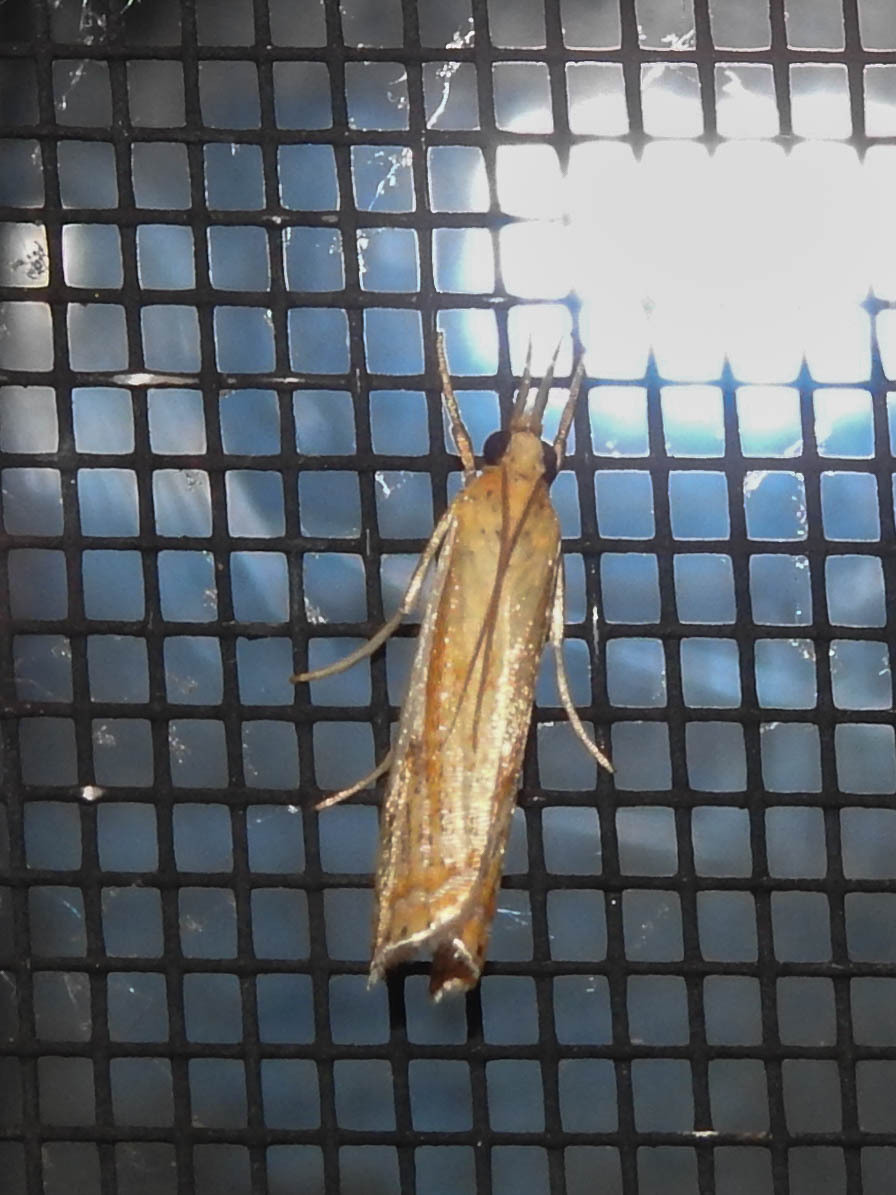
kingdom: Animalia
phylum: Arthropoda
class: Insecta
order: Lepidoptera
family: Crambidae
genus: Crambus
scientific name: Crambus agitatellus
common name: Double-banded grass-veneer
